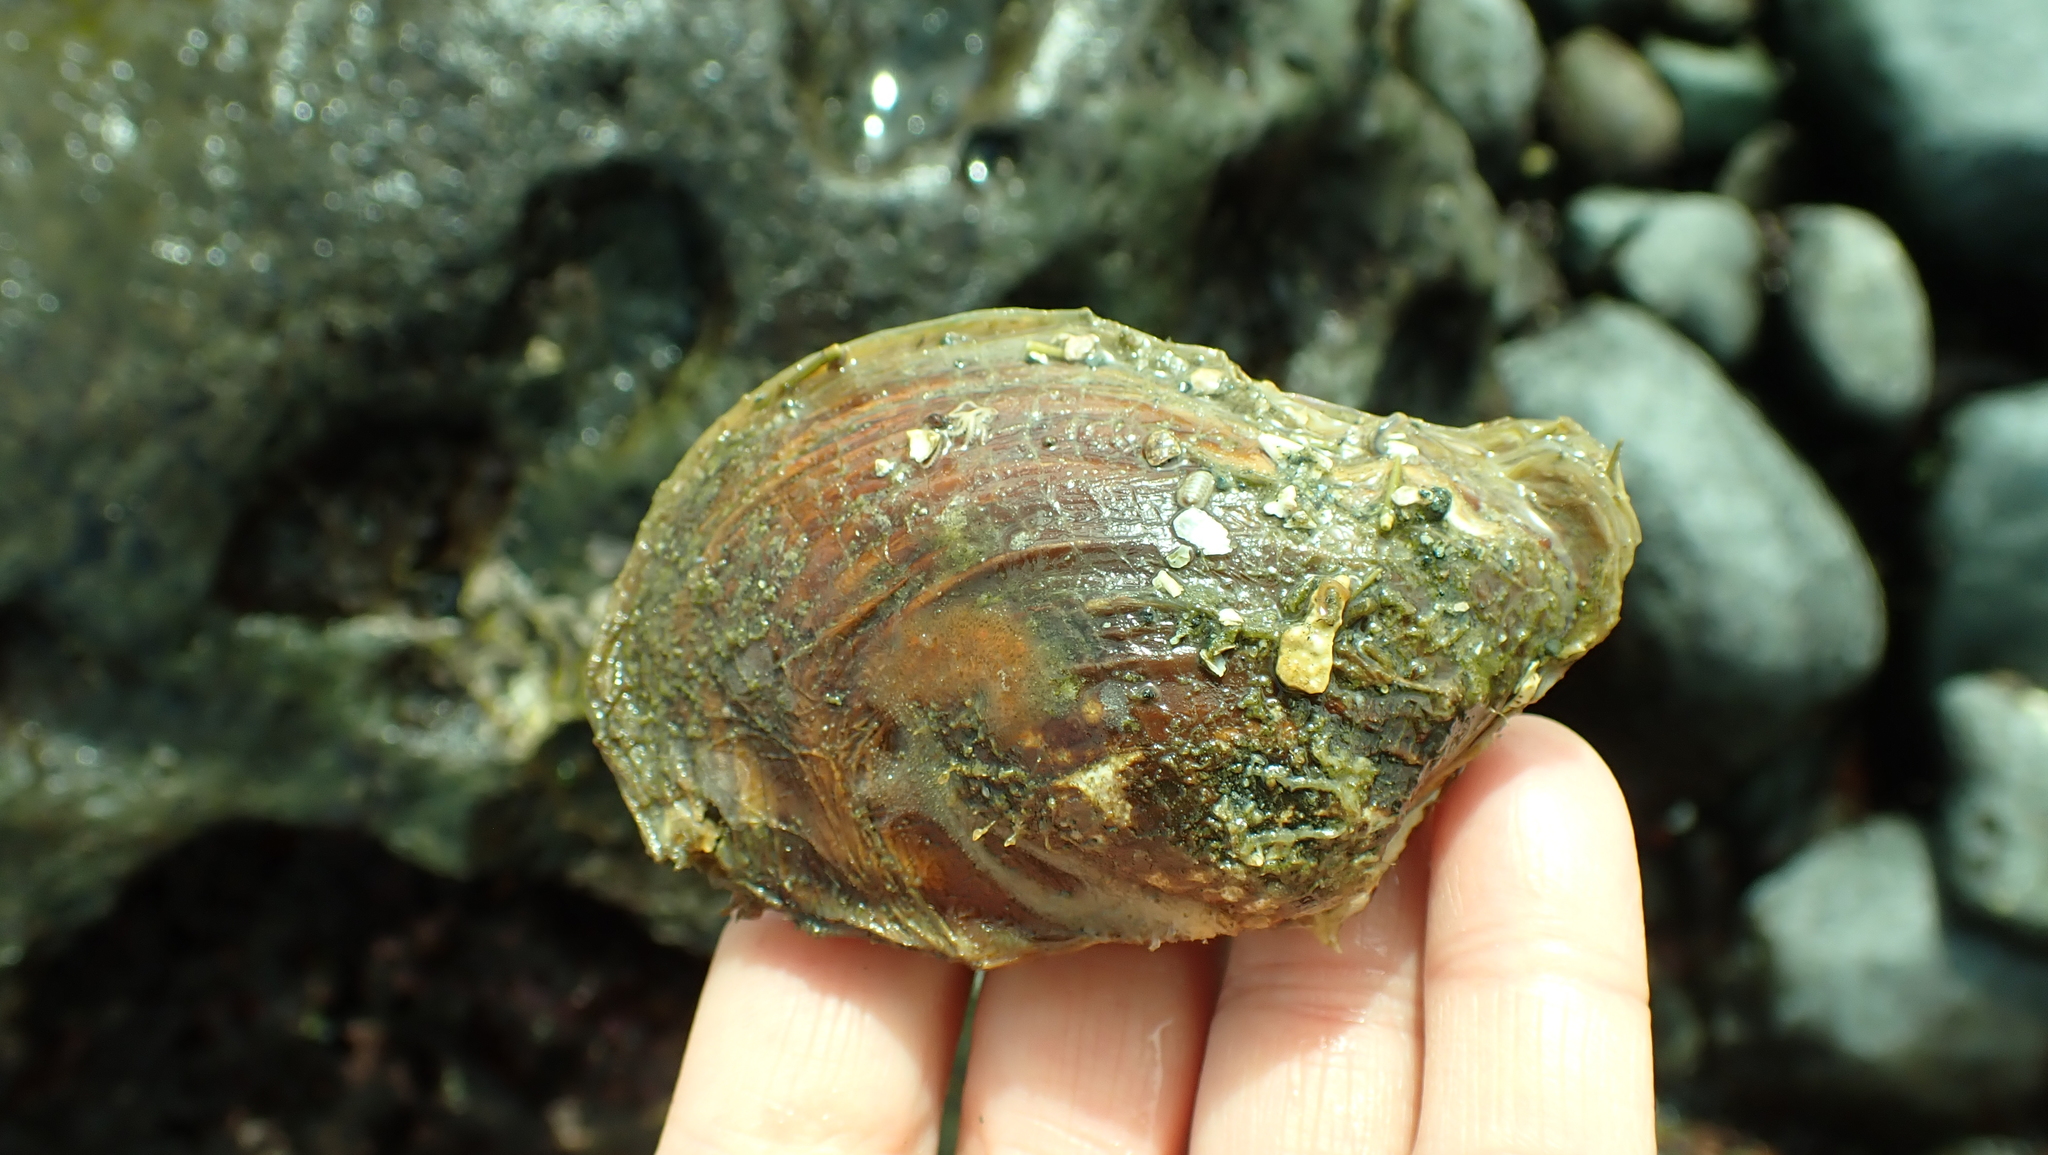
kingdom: Animalia
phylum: Mollusca
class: Bivalvia
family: Lyonsiidae
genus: Entodesma
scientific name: Entodesma navicula
